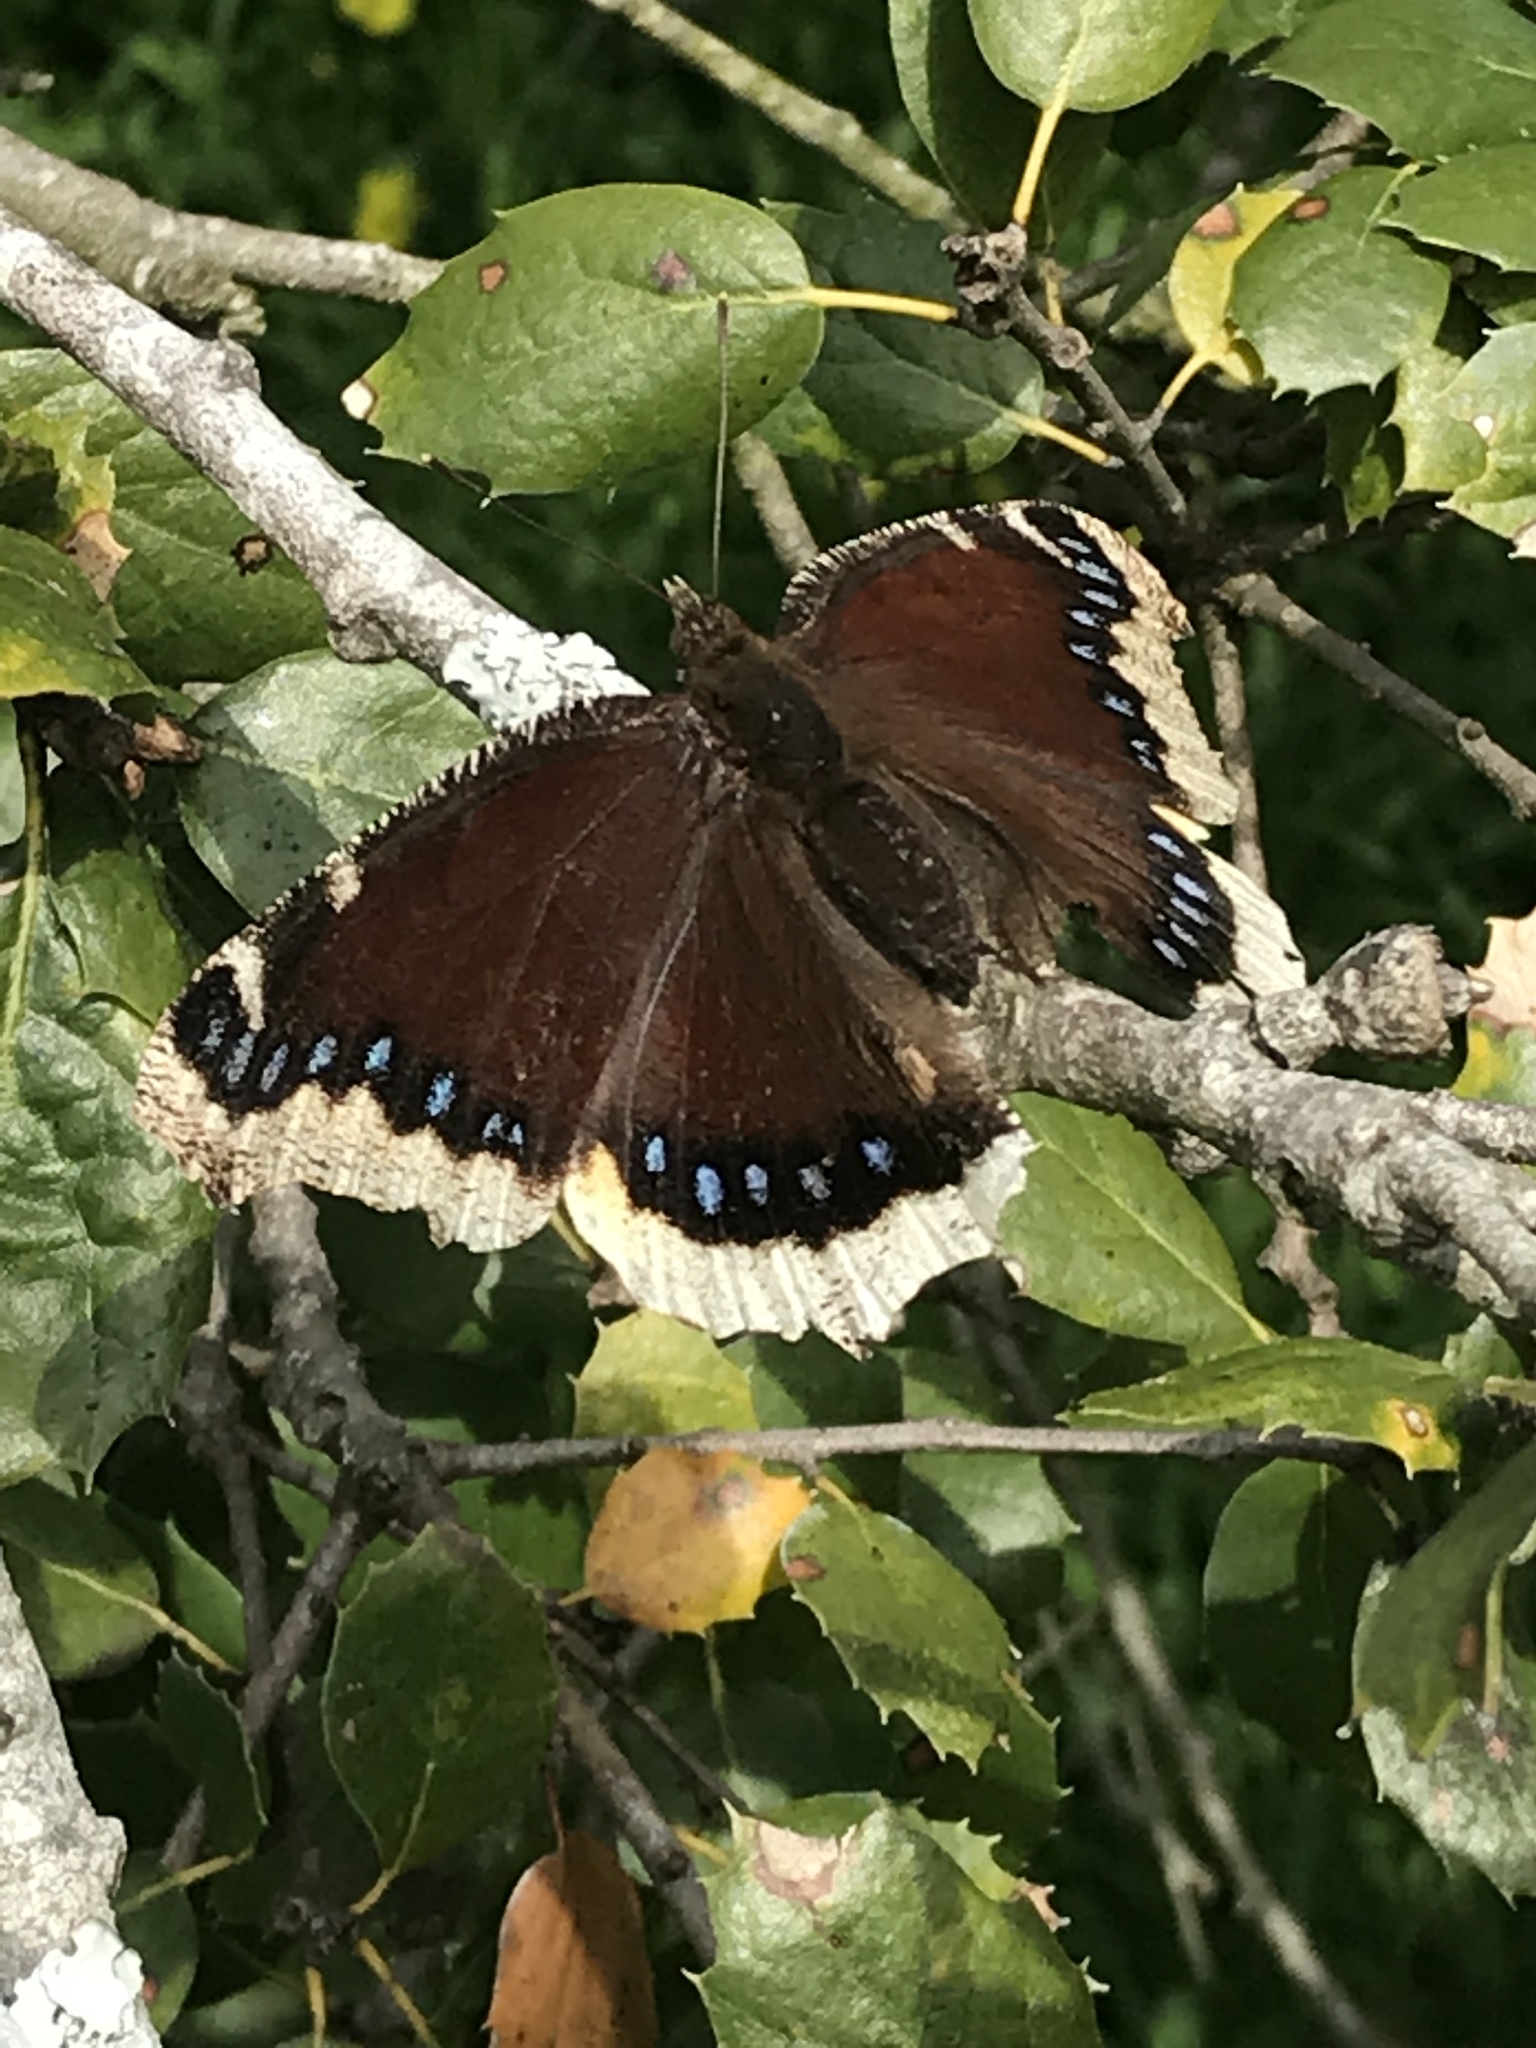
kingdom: Animalia
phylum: Arthropoda
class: Insecta
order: Lepidoptera
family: Nymphalidae
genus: Nymphalis
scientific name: Nymphalis antiopa
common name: Camberwell beauty
